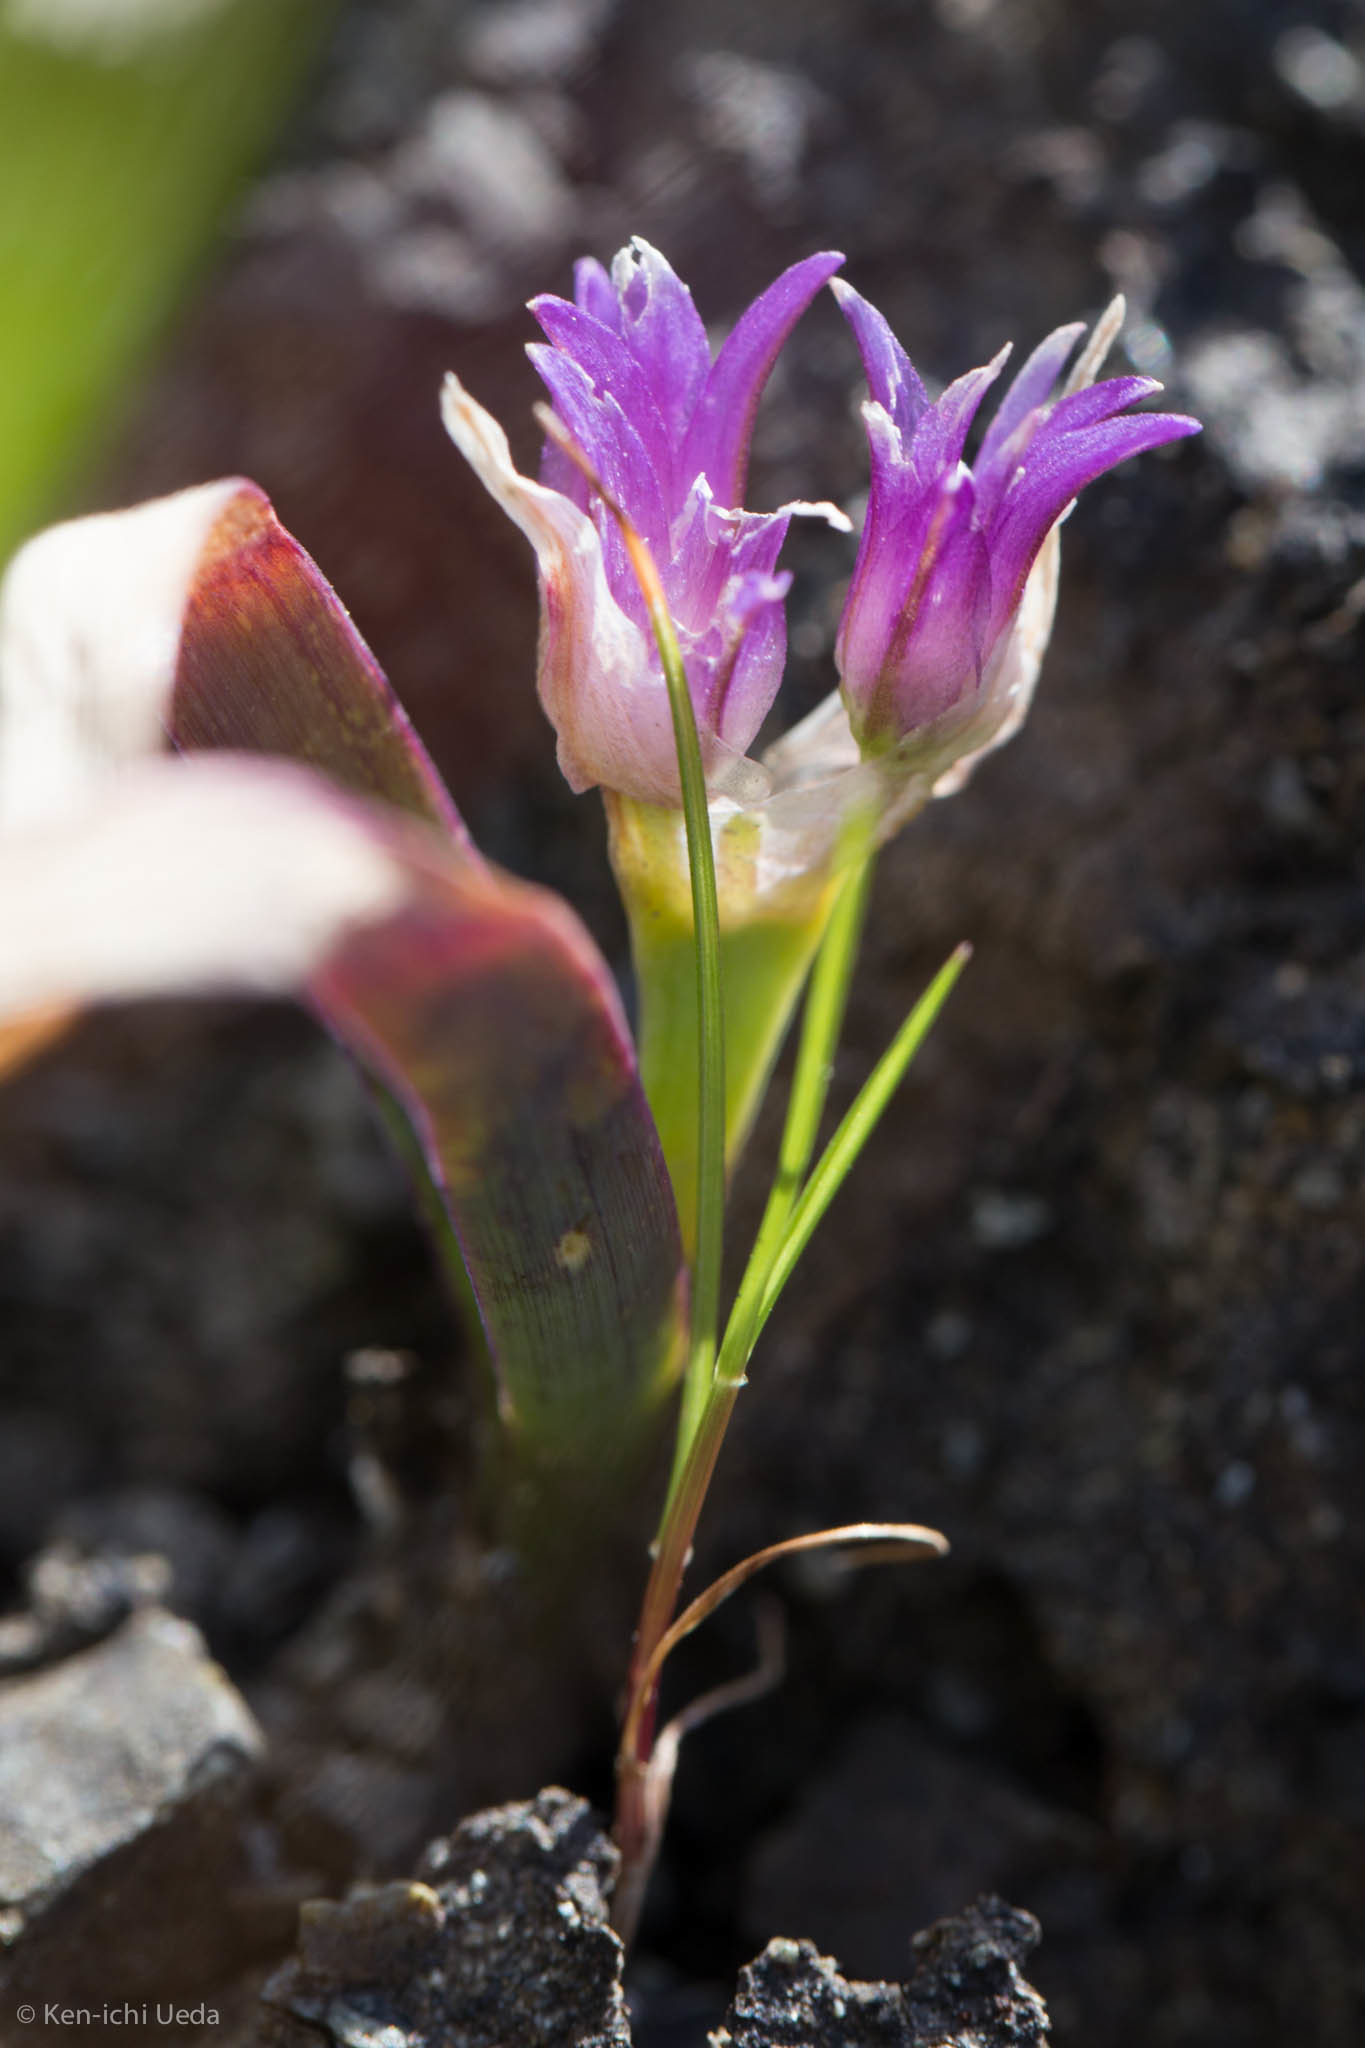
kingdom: Plantae
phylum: Tracheophyta
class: Liliopsida
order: Asparagales
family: Amaryllidaceae
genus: Allium
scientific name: Allium falcifolium
